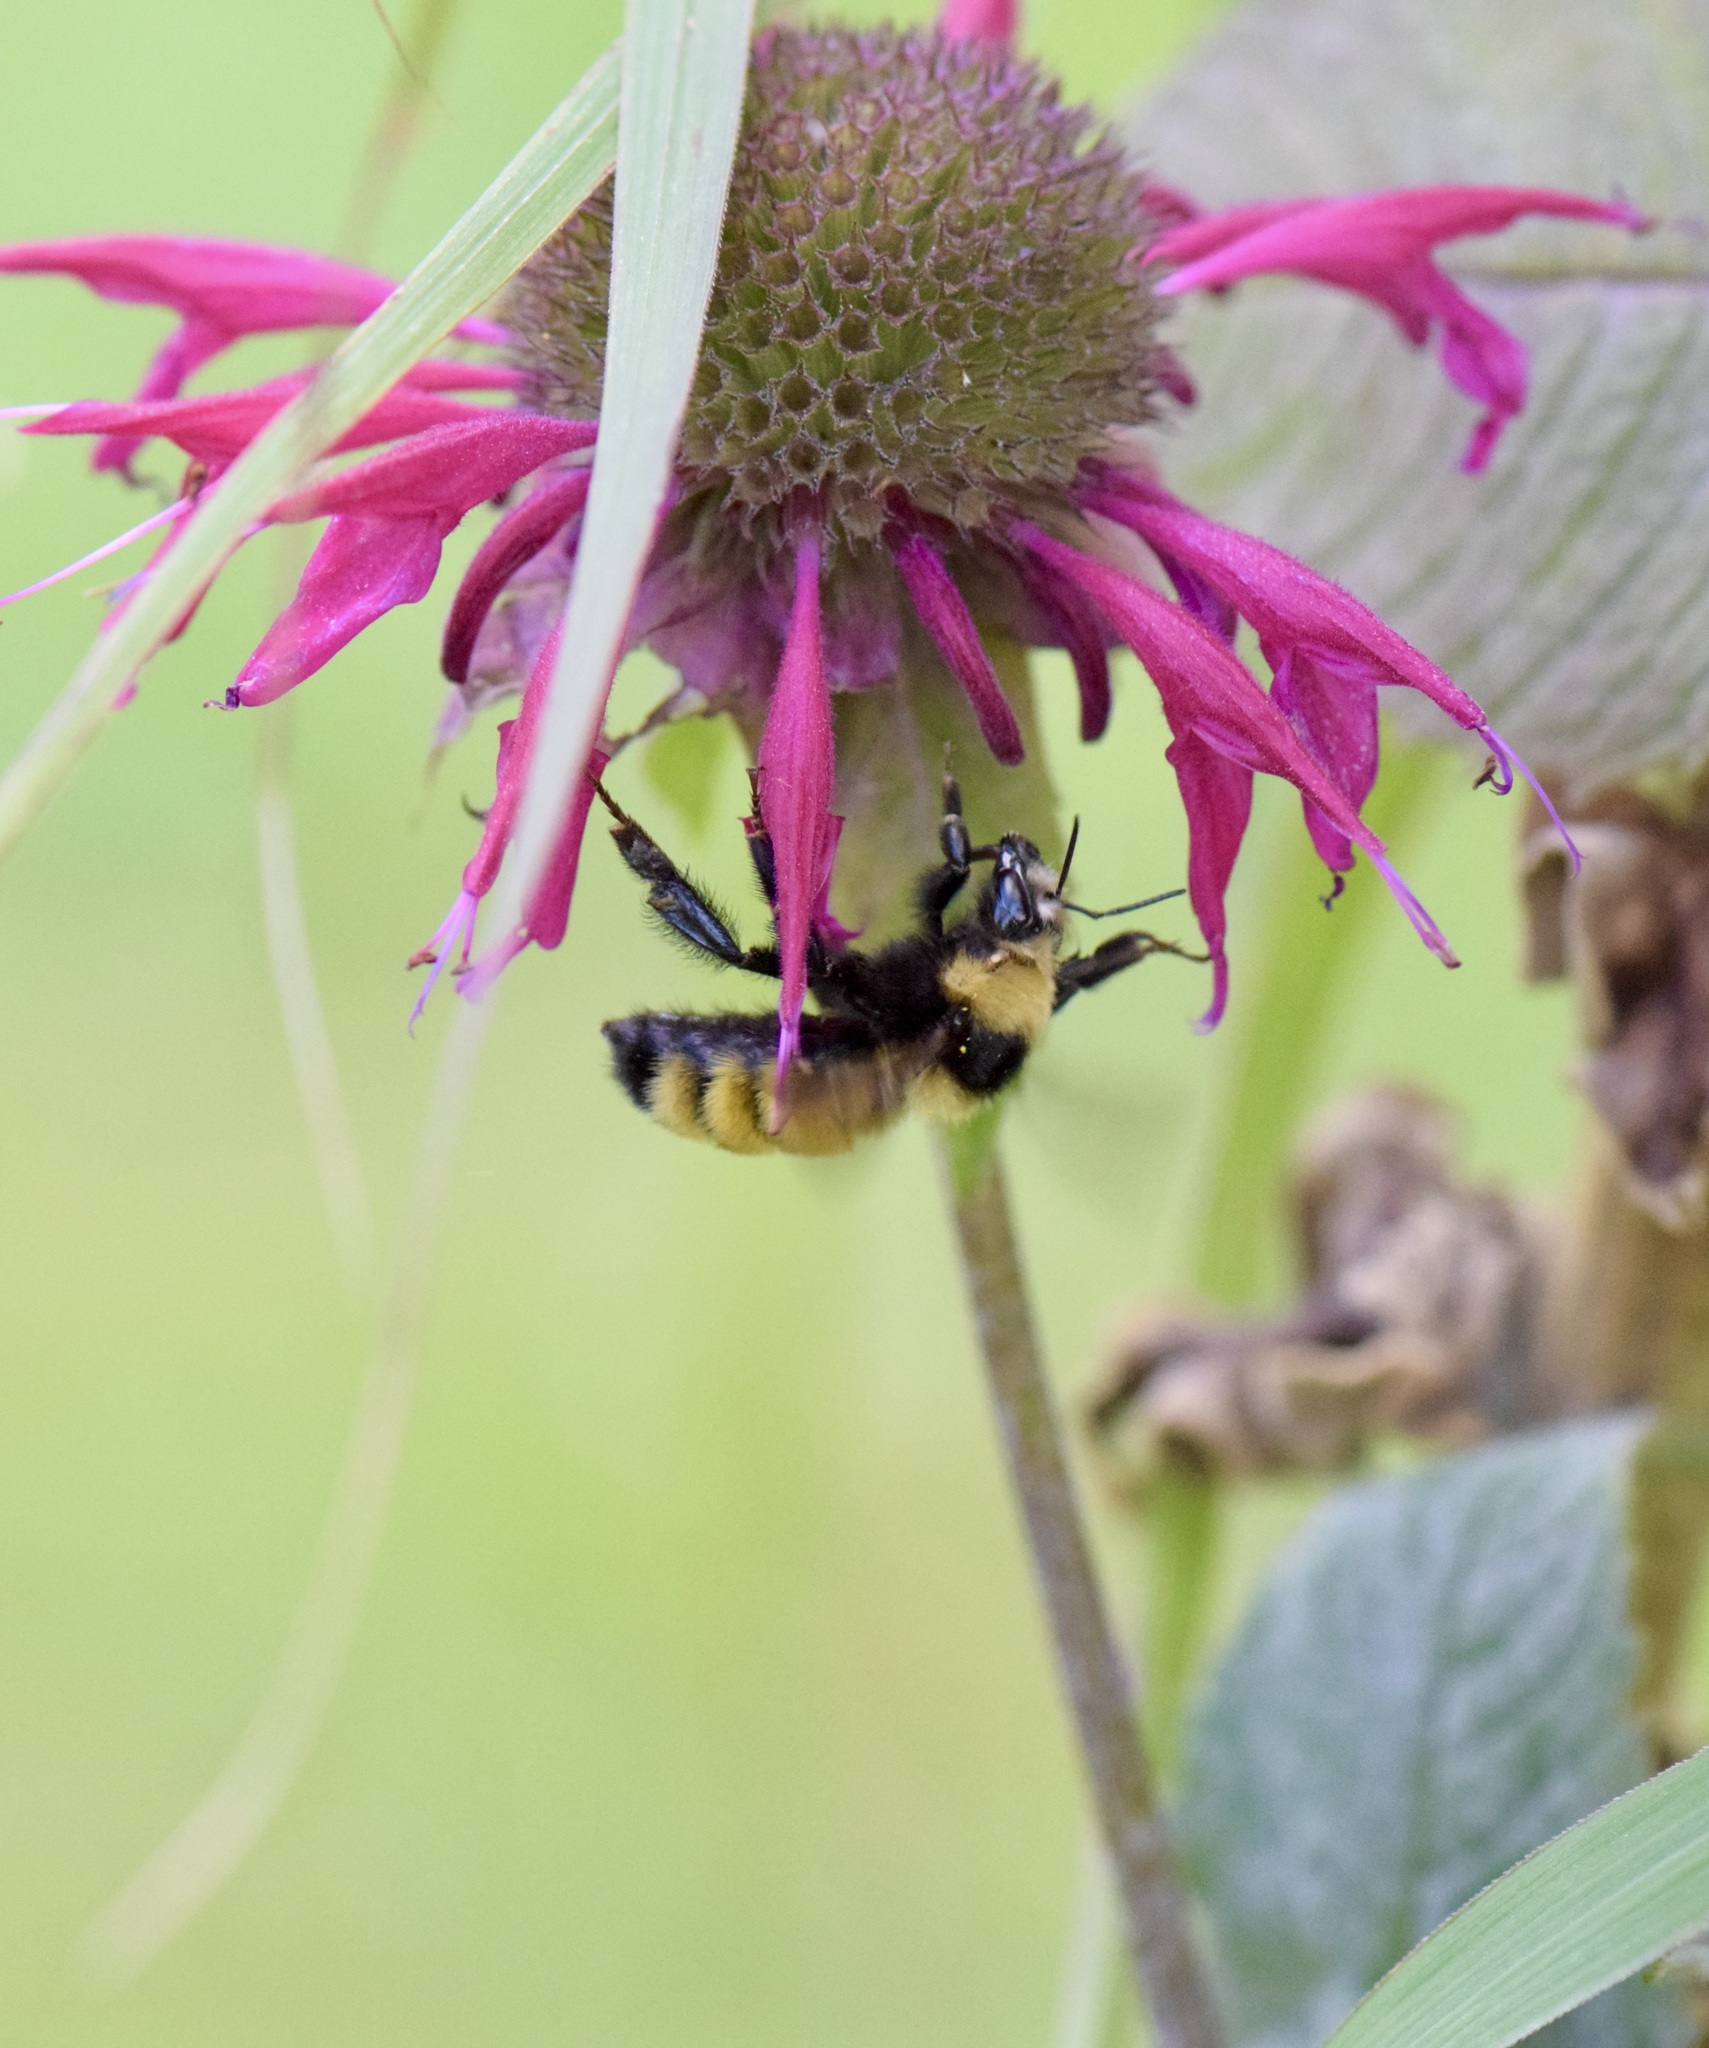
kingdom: Animalia
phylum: Arthropoda
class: Insecta
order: Hymenoptera
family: Apidae
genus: Bombus
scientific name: Bombus borealis
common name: Northern amber bumble bee
